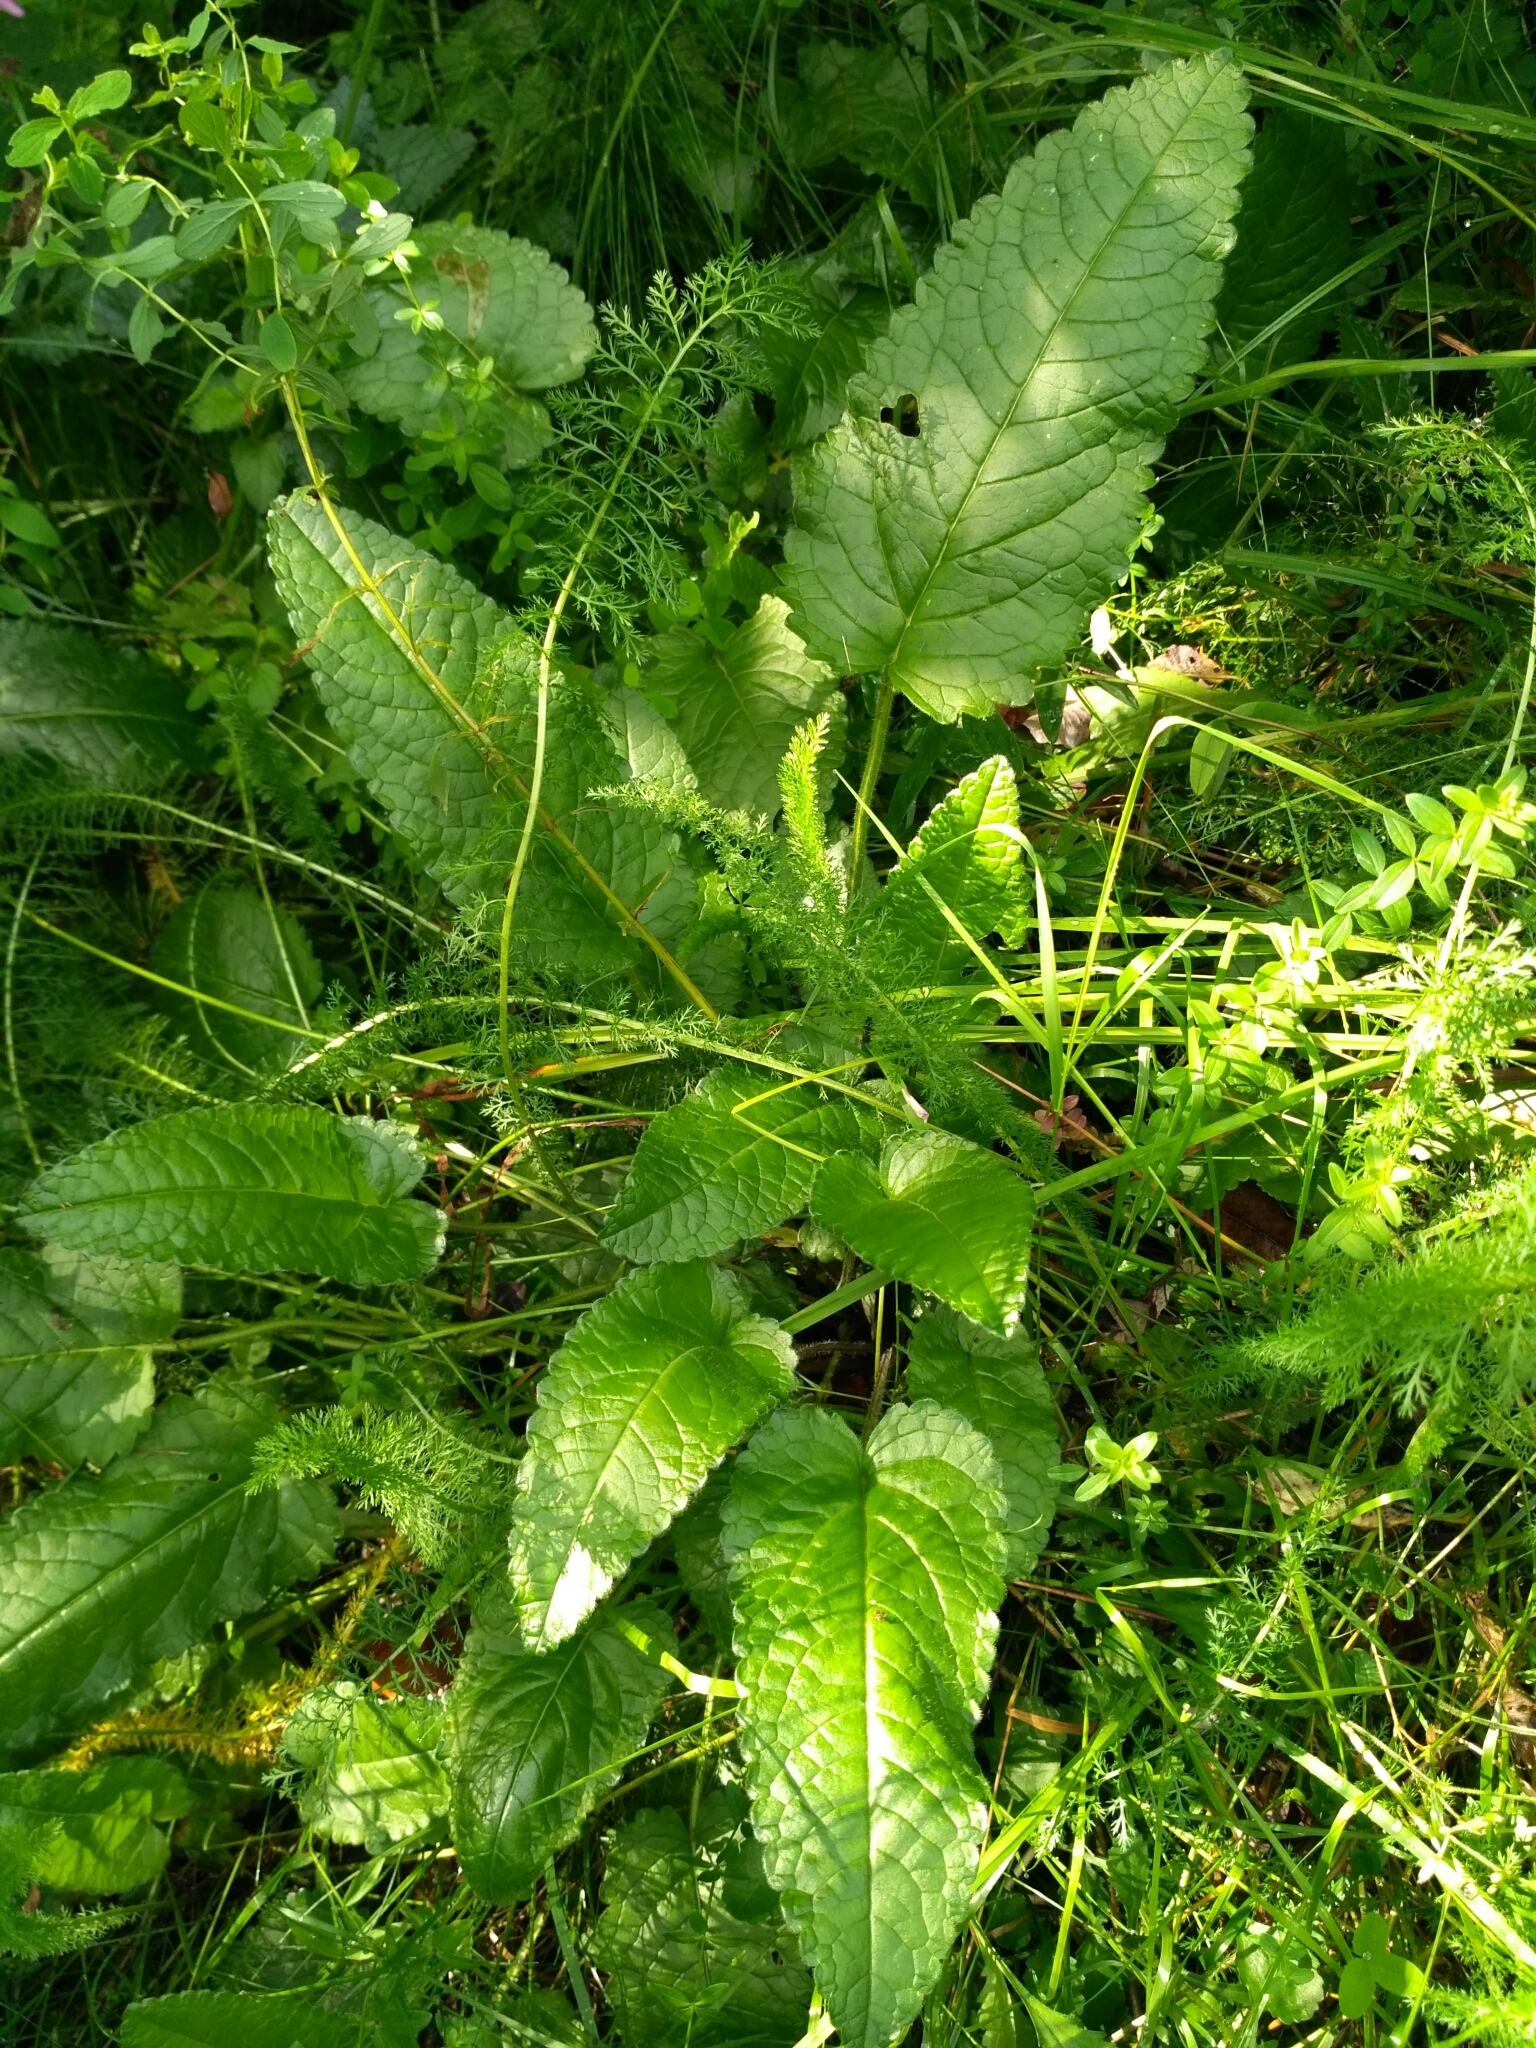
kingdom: Plantae
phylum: Tracheophyta
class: Magnoliopsida
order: Lamiales
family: Lamiaceae
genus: Betonica
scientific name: Betonica officinalis
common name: Bishop's-wort
